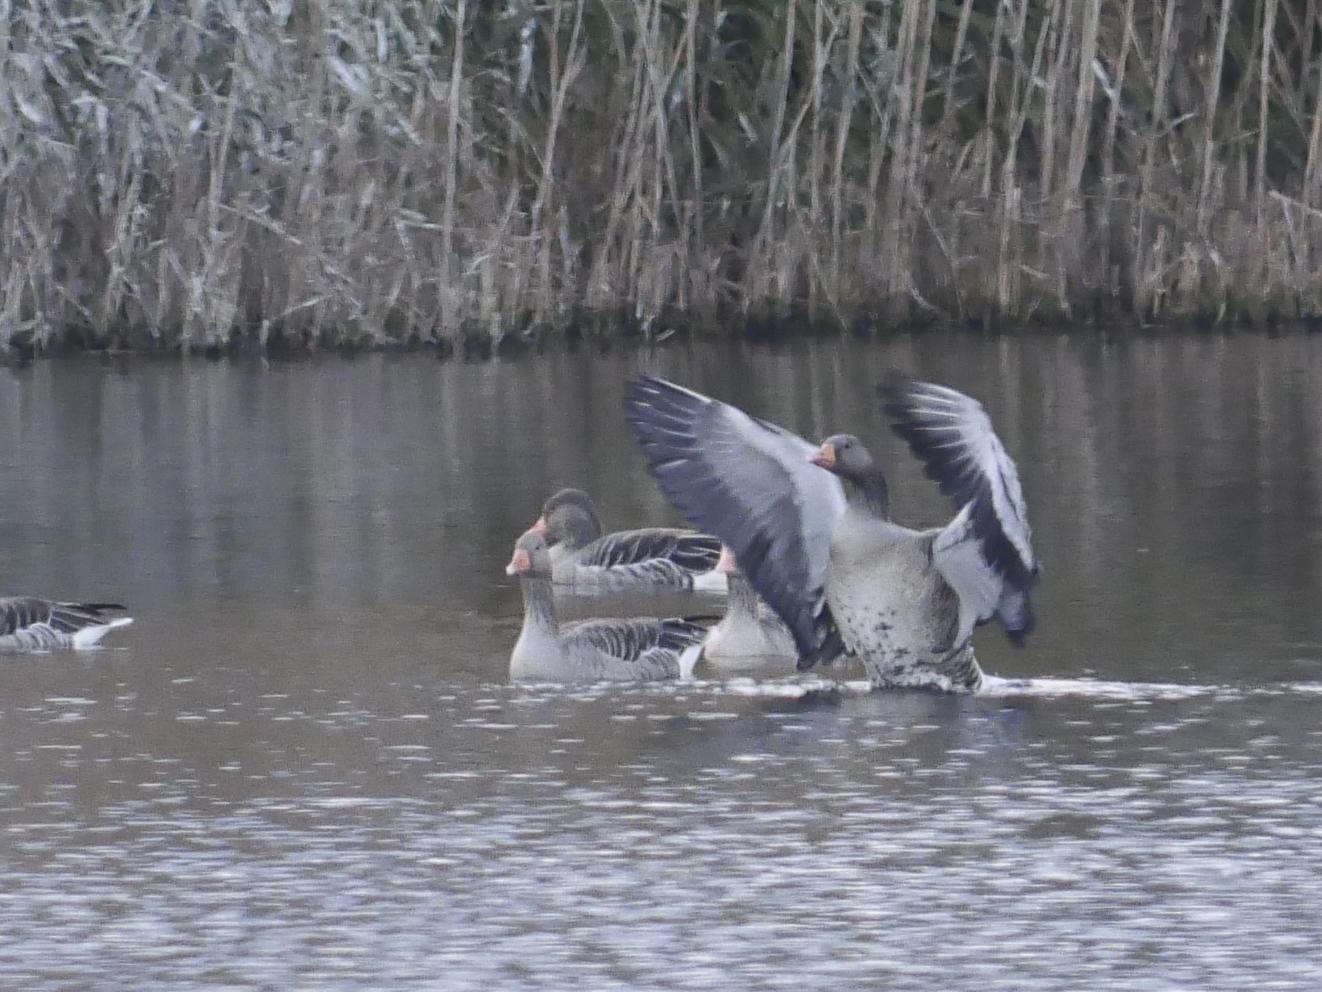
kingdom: Animalia
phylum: Chordata
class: Aves
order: Anseriformes
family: Anatidae
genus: Anser
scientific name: Anser anser
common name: Greylag goose
